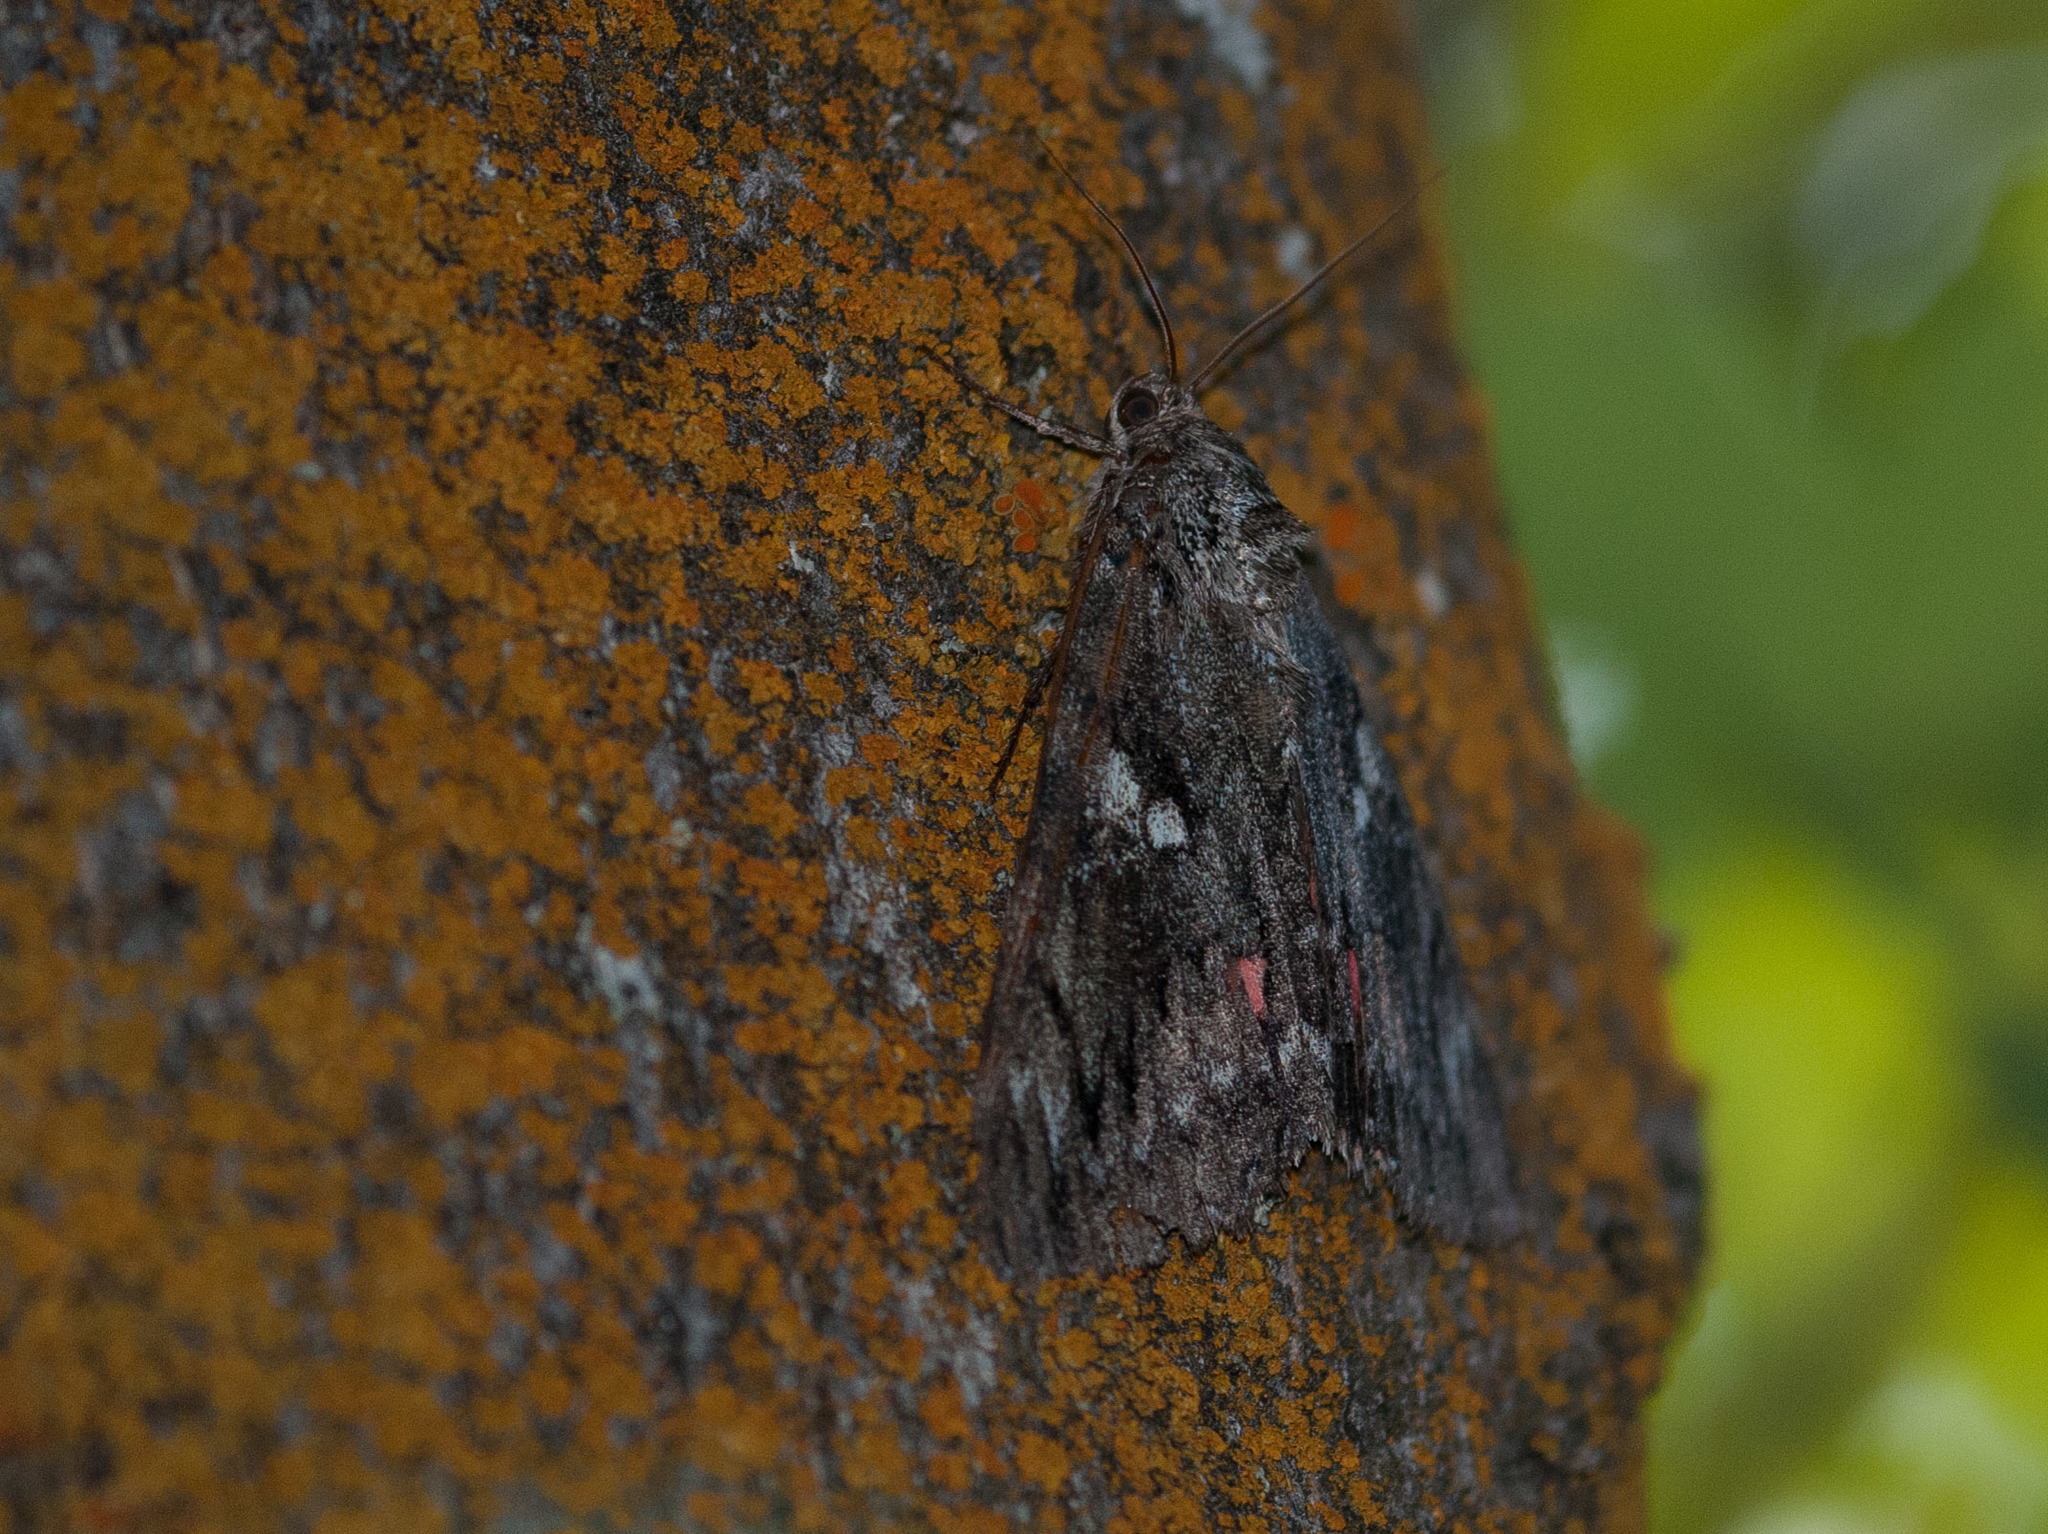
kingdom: Animalia
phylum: Arthropoda
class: Insecta
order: Lepidoptera
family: Erebidae
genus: Catocala
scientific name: Catocala aholibah
